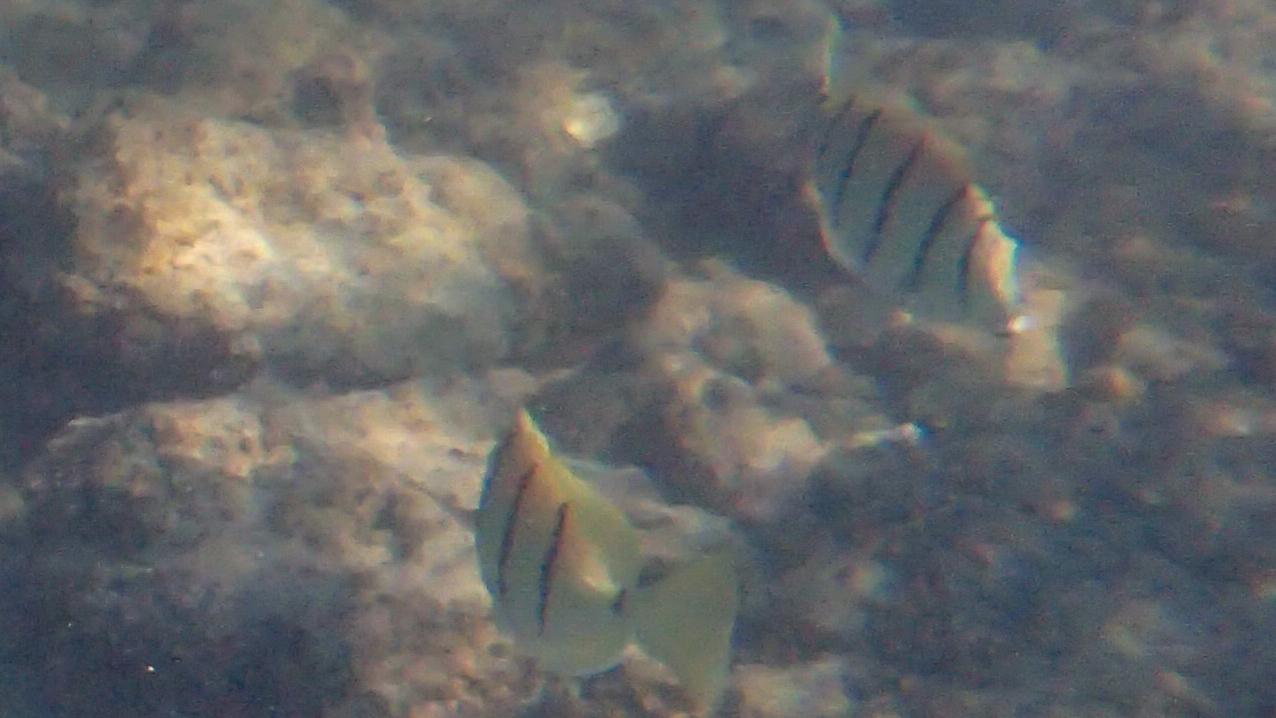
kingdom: Animalia
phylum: Chordata
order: Perciformes
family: Acanthuridae
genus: Acanthurus
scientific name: Acanthurus triostegus
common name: Convict surgeonfish
